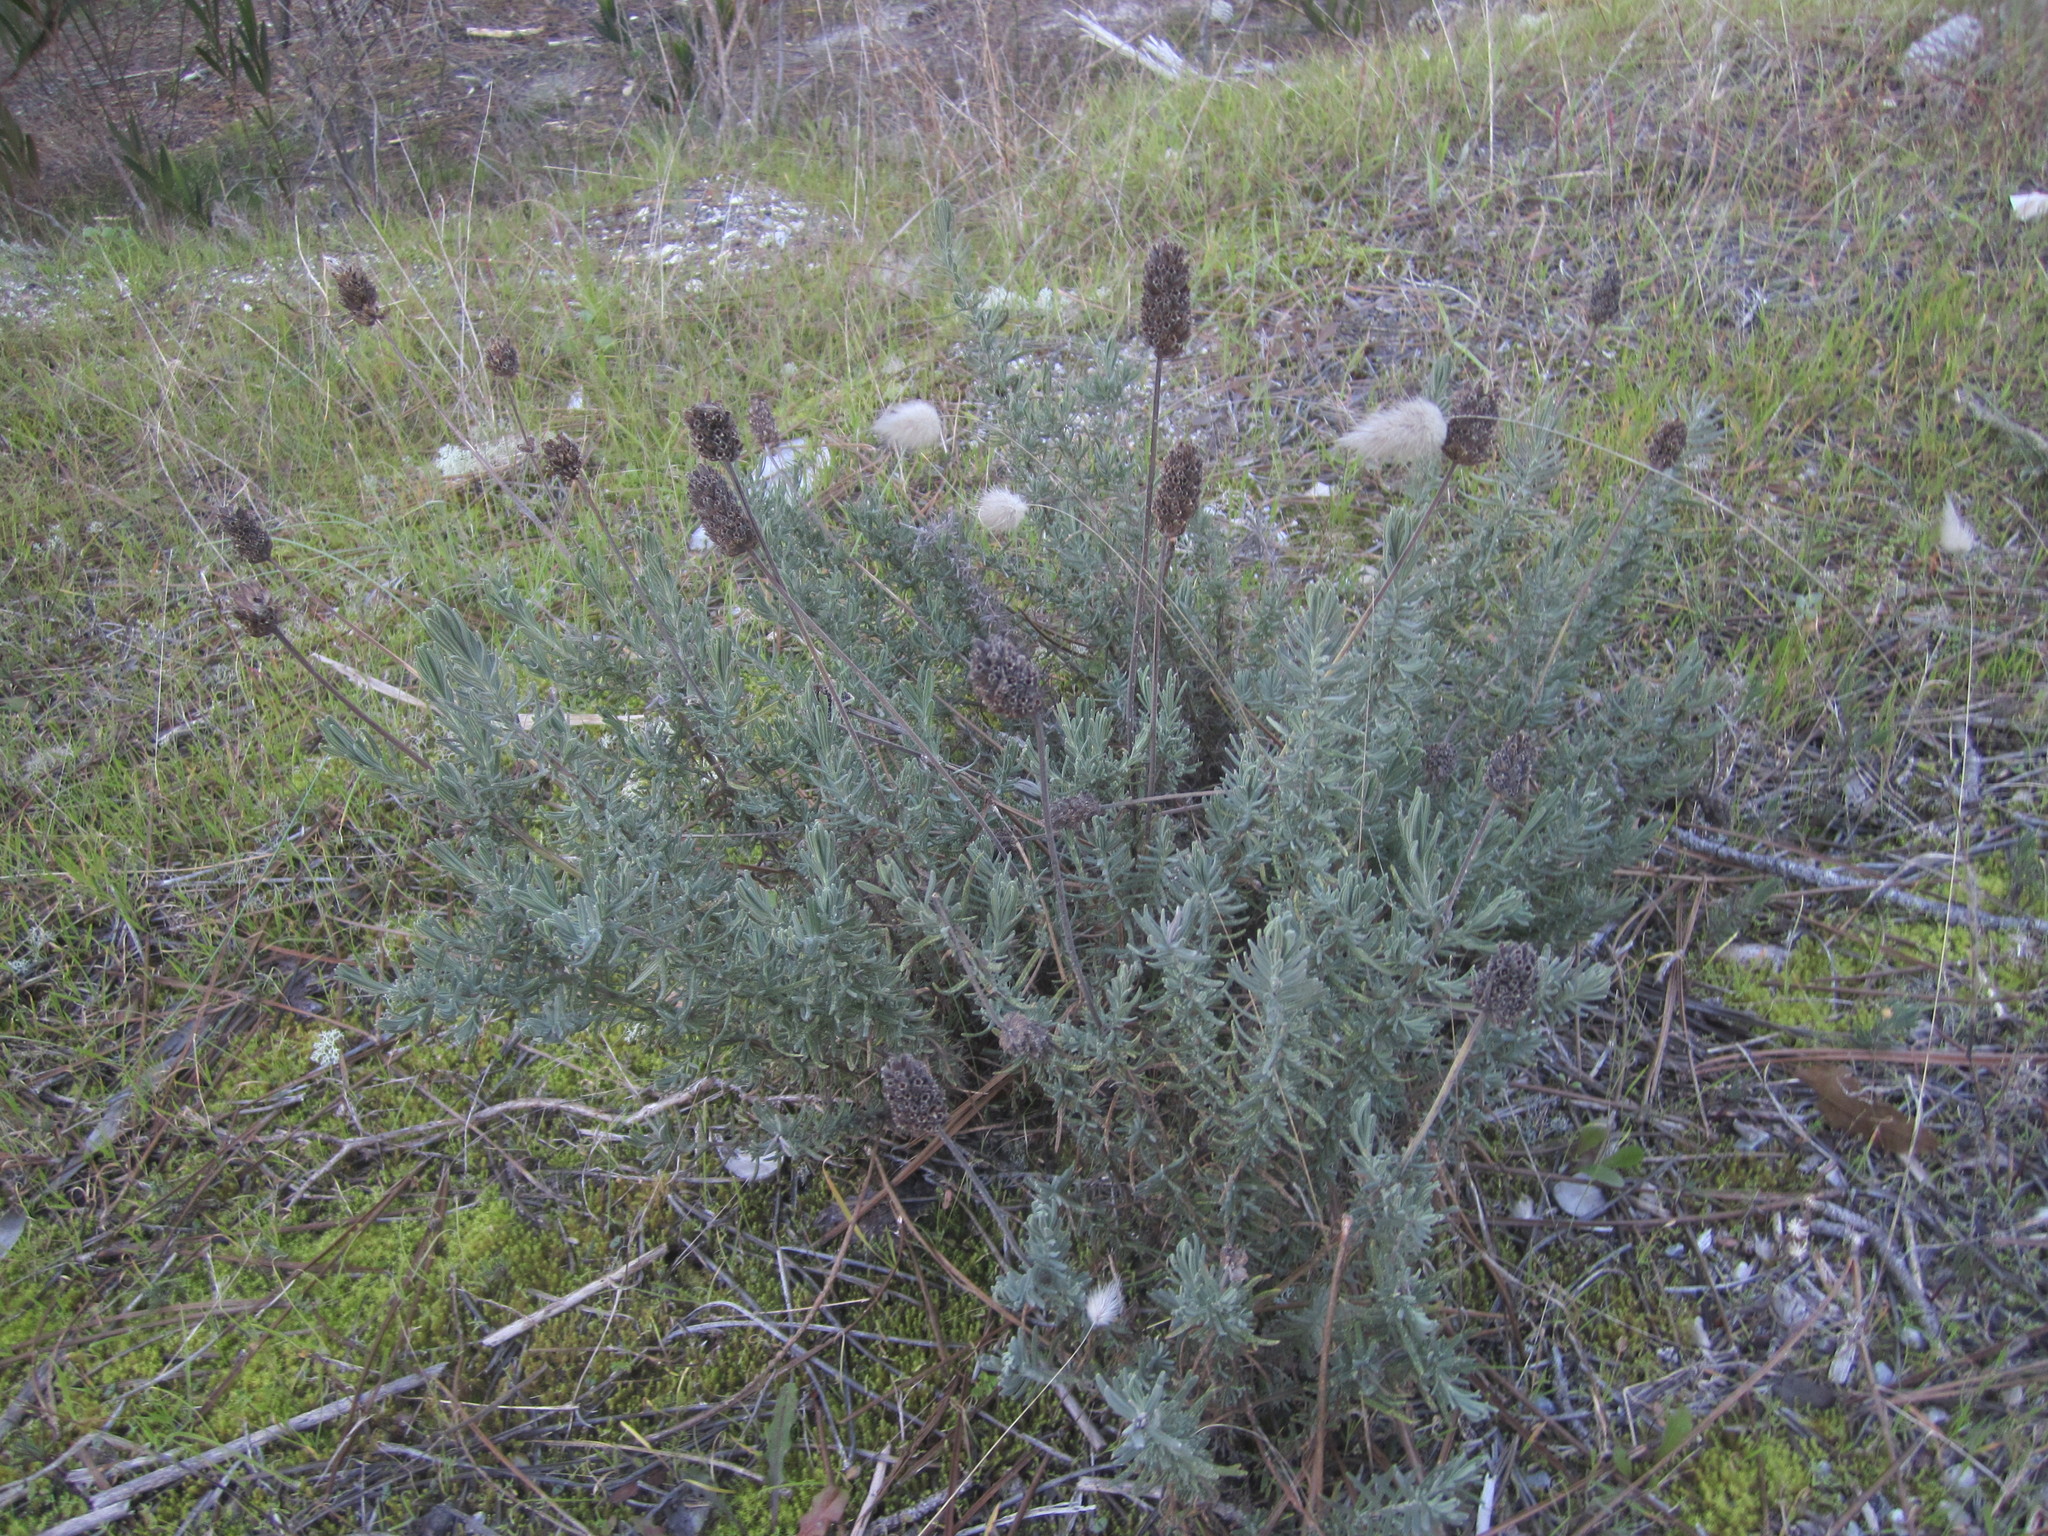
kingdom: Plantae
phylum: Tracheophyta
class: Magnoliopsida
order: Lamiales
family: Lamiaceae
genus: Lavandula
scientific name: Lavandula pedunculata
